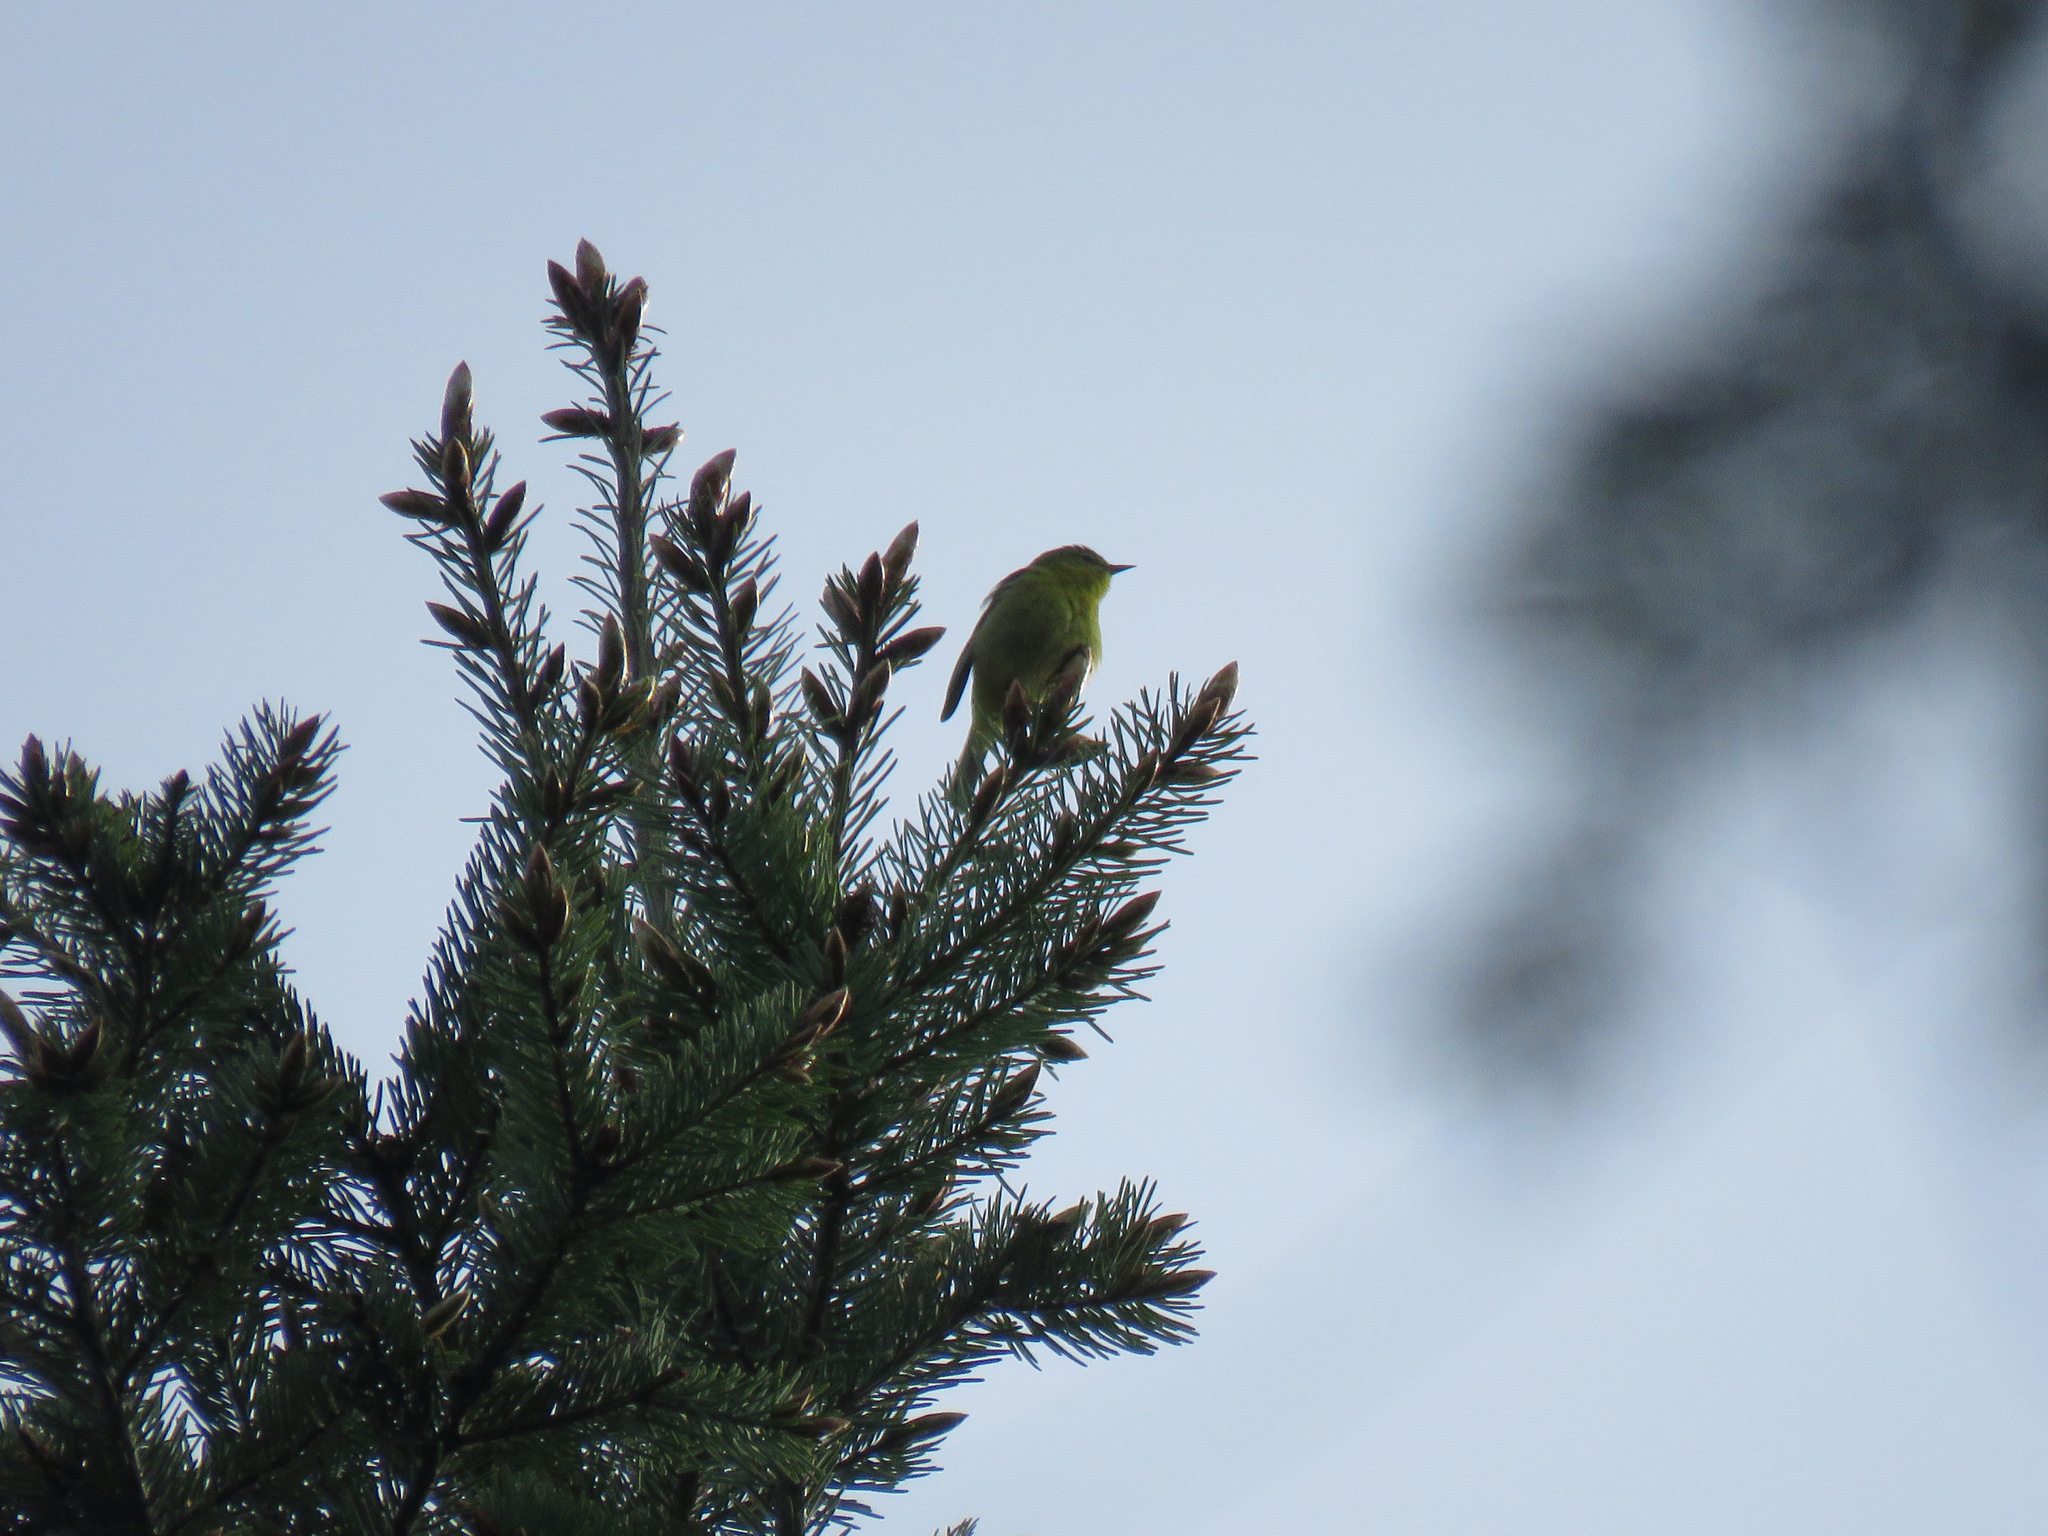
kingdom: Animalia
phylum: Chordata
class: Aves
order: Passeriformes
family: Parulidae
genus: Leiothlypis
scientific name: Leiothlypis celata
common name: Orange-crowned warbler
